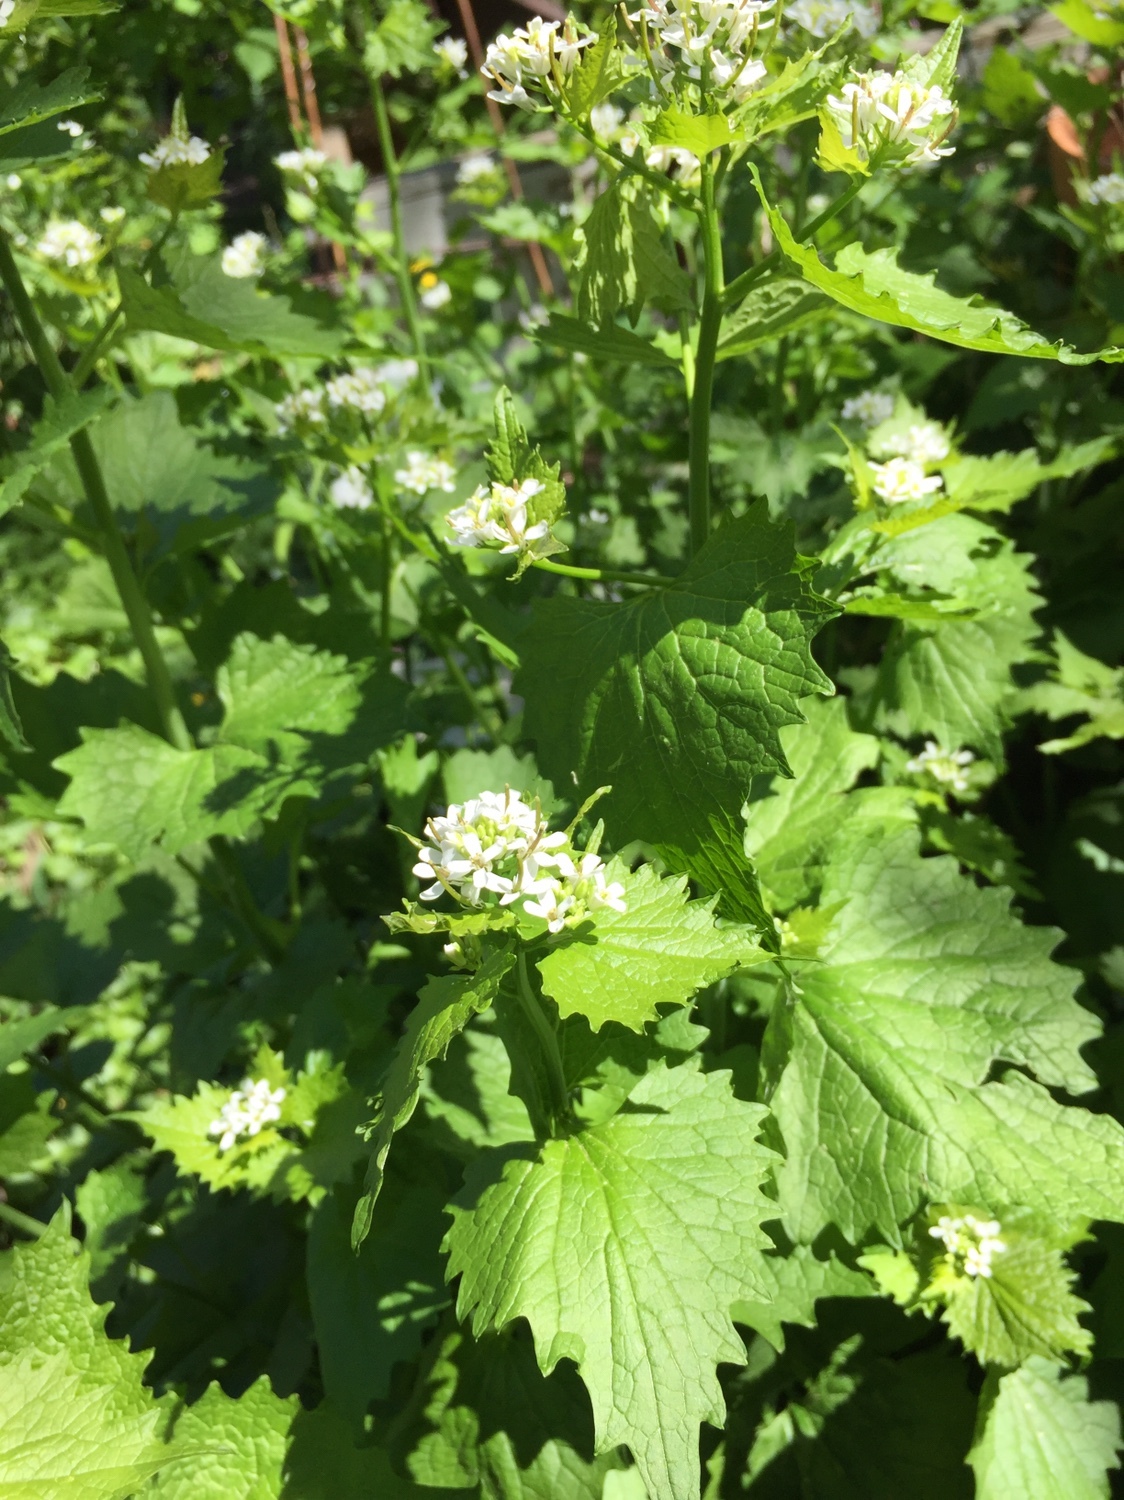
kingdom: Plantae
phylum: Tracheophyta
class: Magnoliopsida
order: Brassicales
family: Brassicaceae
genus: Alliaria
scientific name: Alliaria petiolata
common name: Garlic mustard
